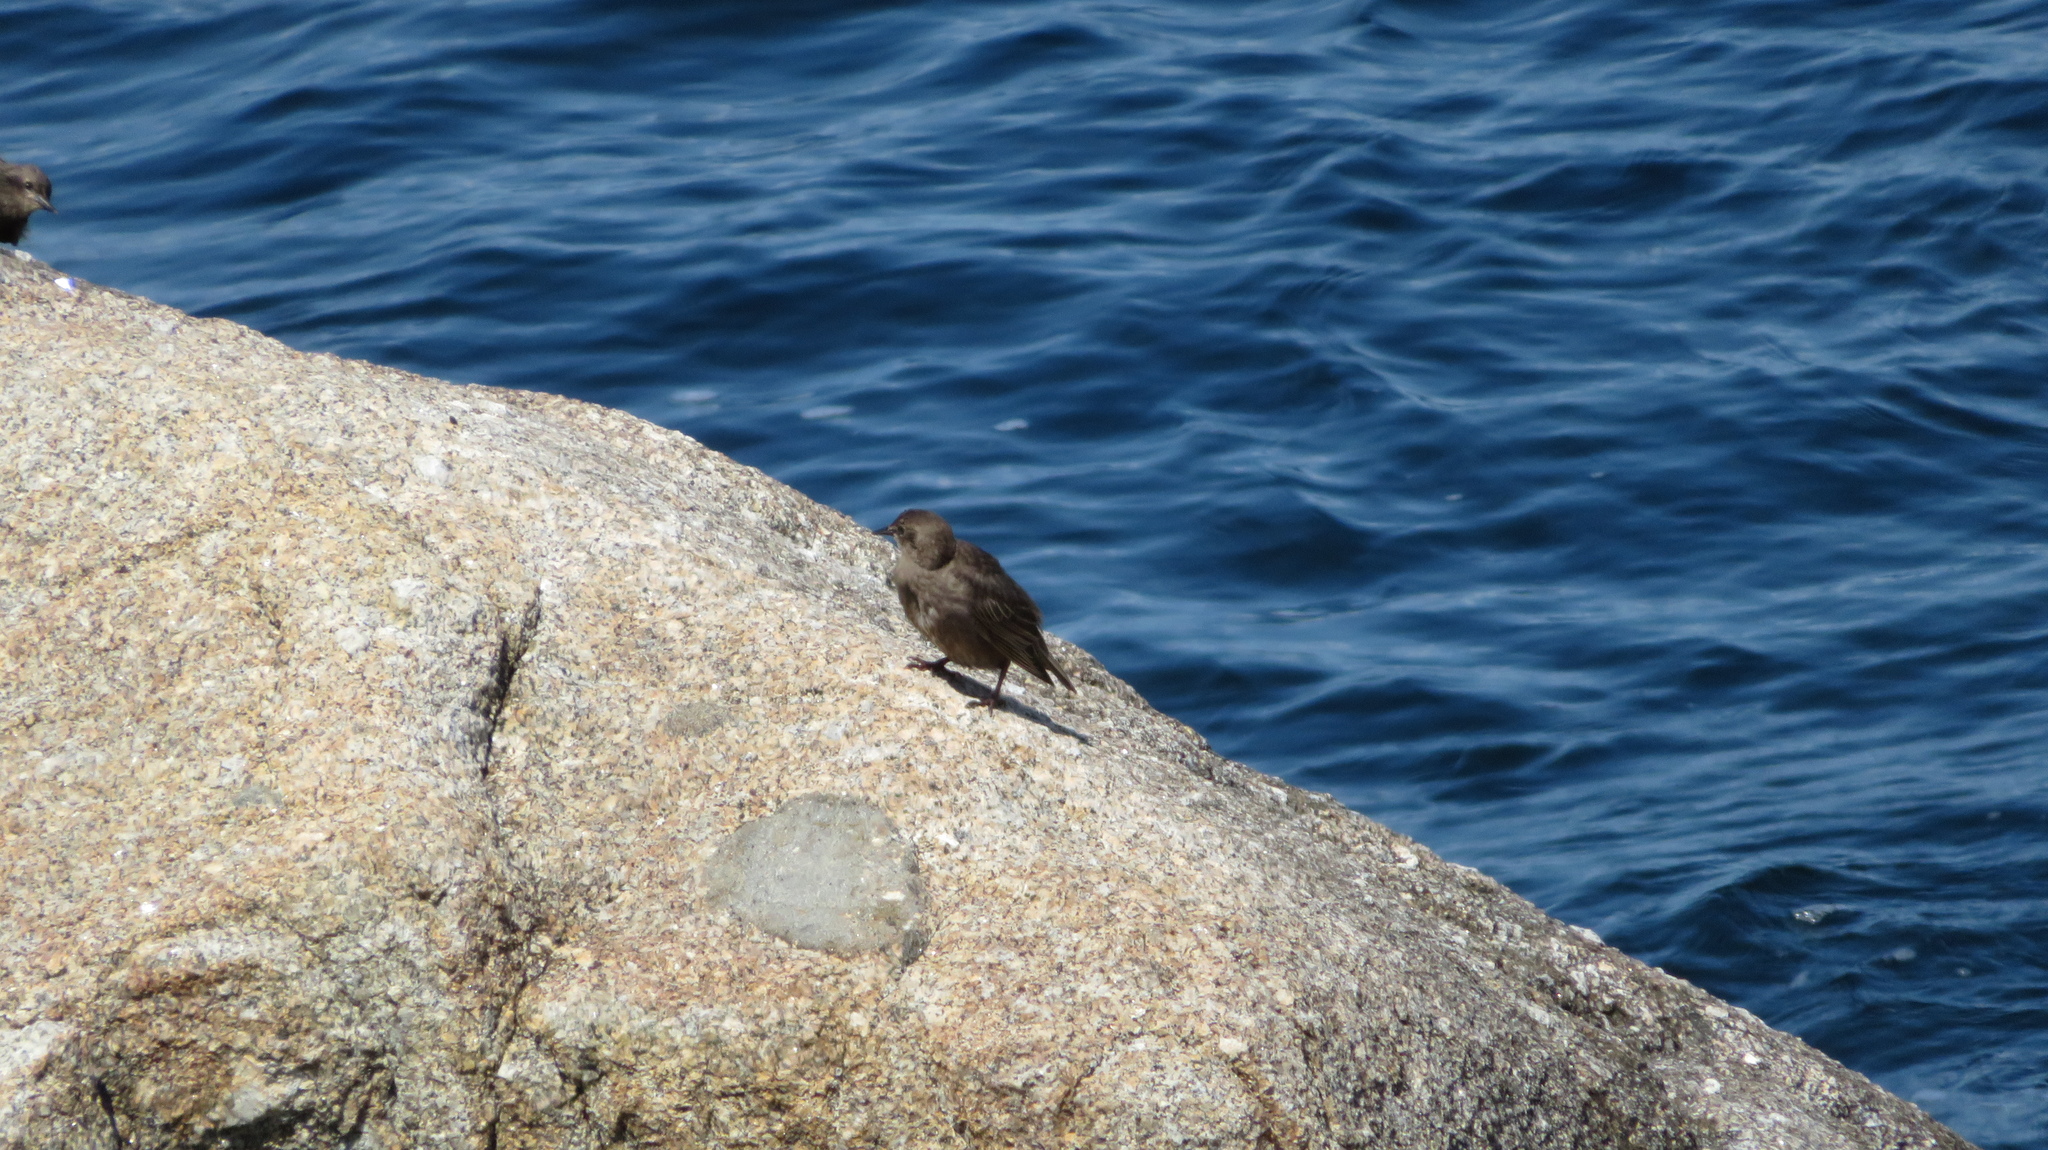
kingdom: Animalia
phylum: Chordata
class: Aves
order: Passeriformes
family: Sturnidae
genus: Sturnus
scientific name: Sturnus vulgaris
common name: Common starling
